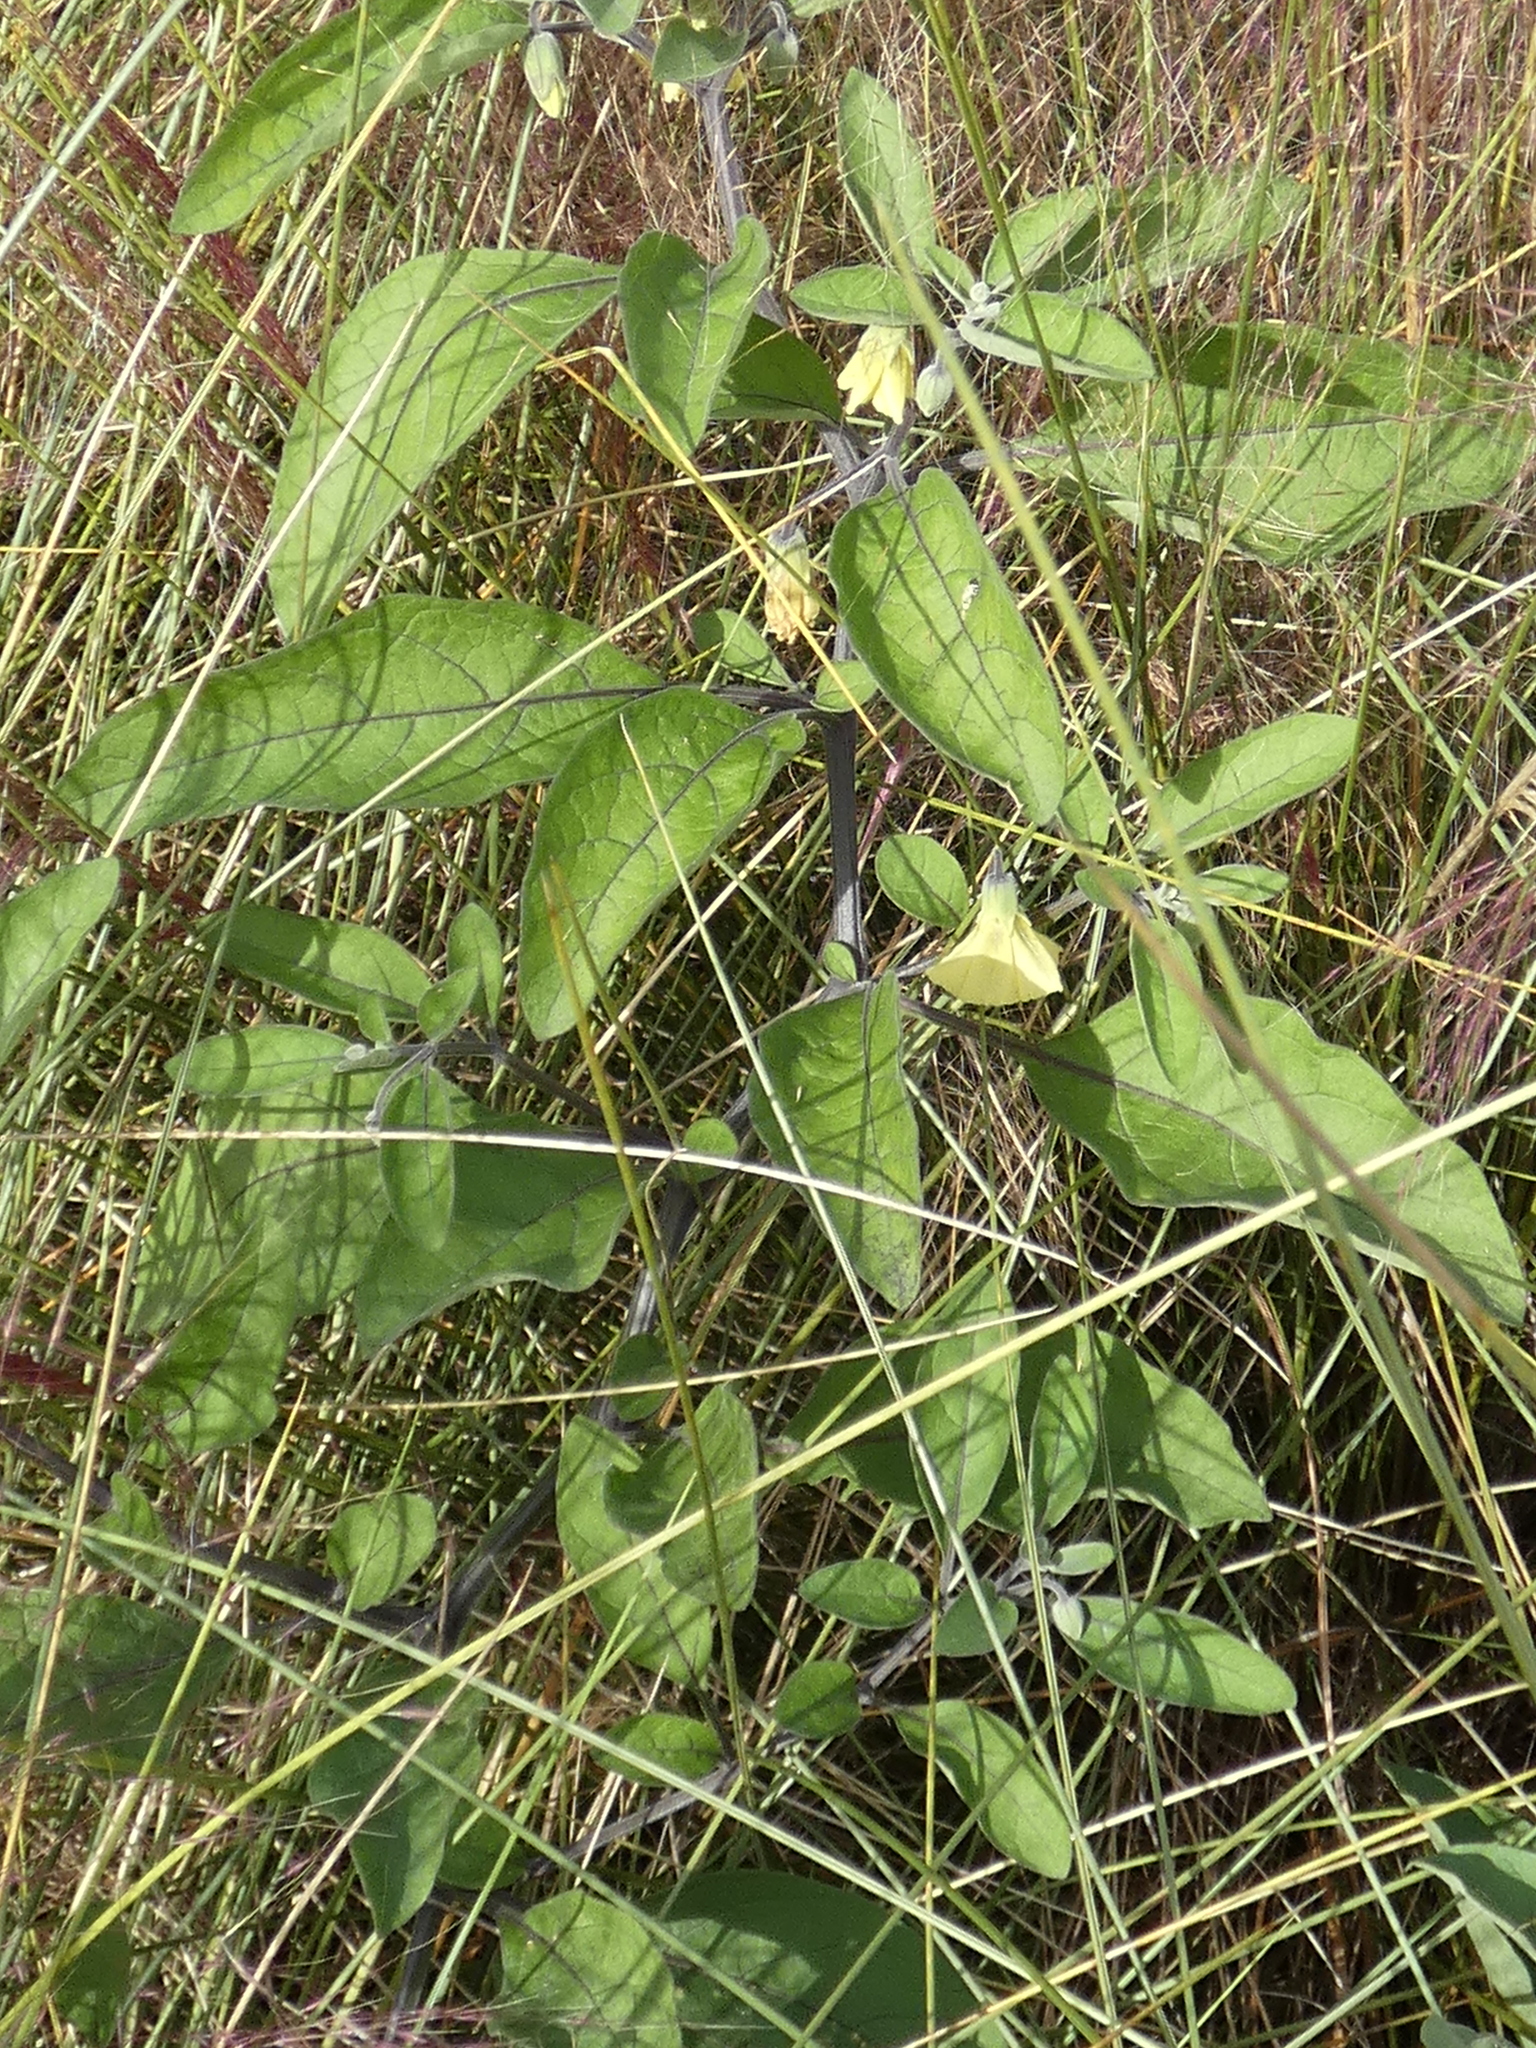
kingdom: Plantae
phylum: Tracheophyta
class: Magnoliopsida
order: Solanales
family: Solanaceae
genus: Physalis
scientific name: Physalis walteri
